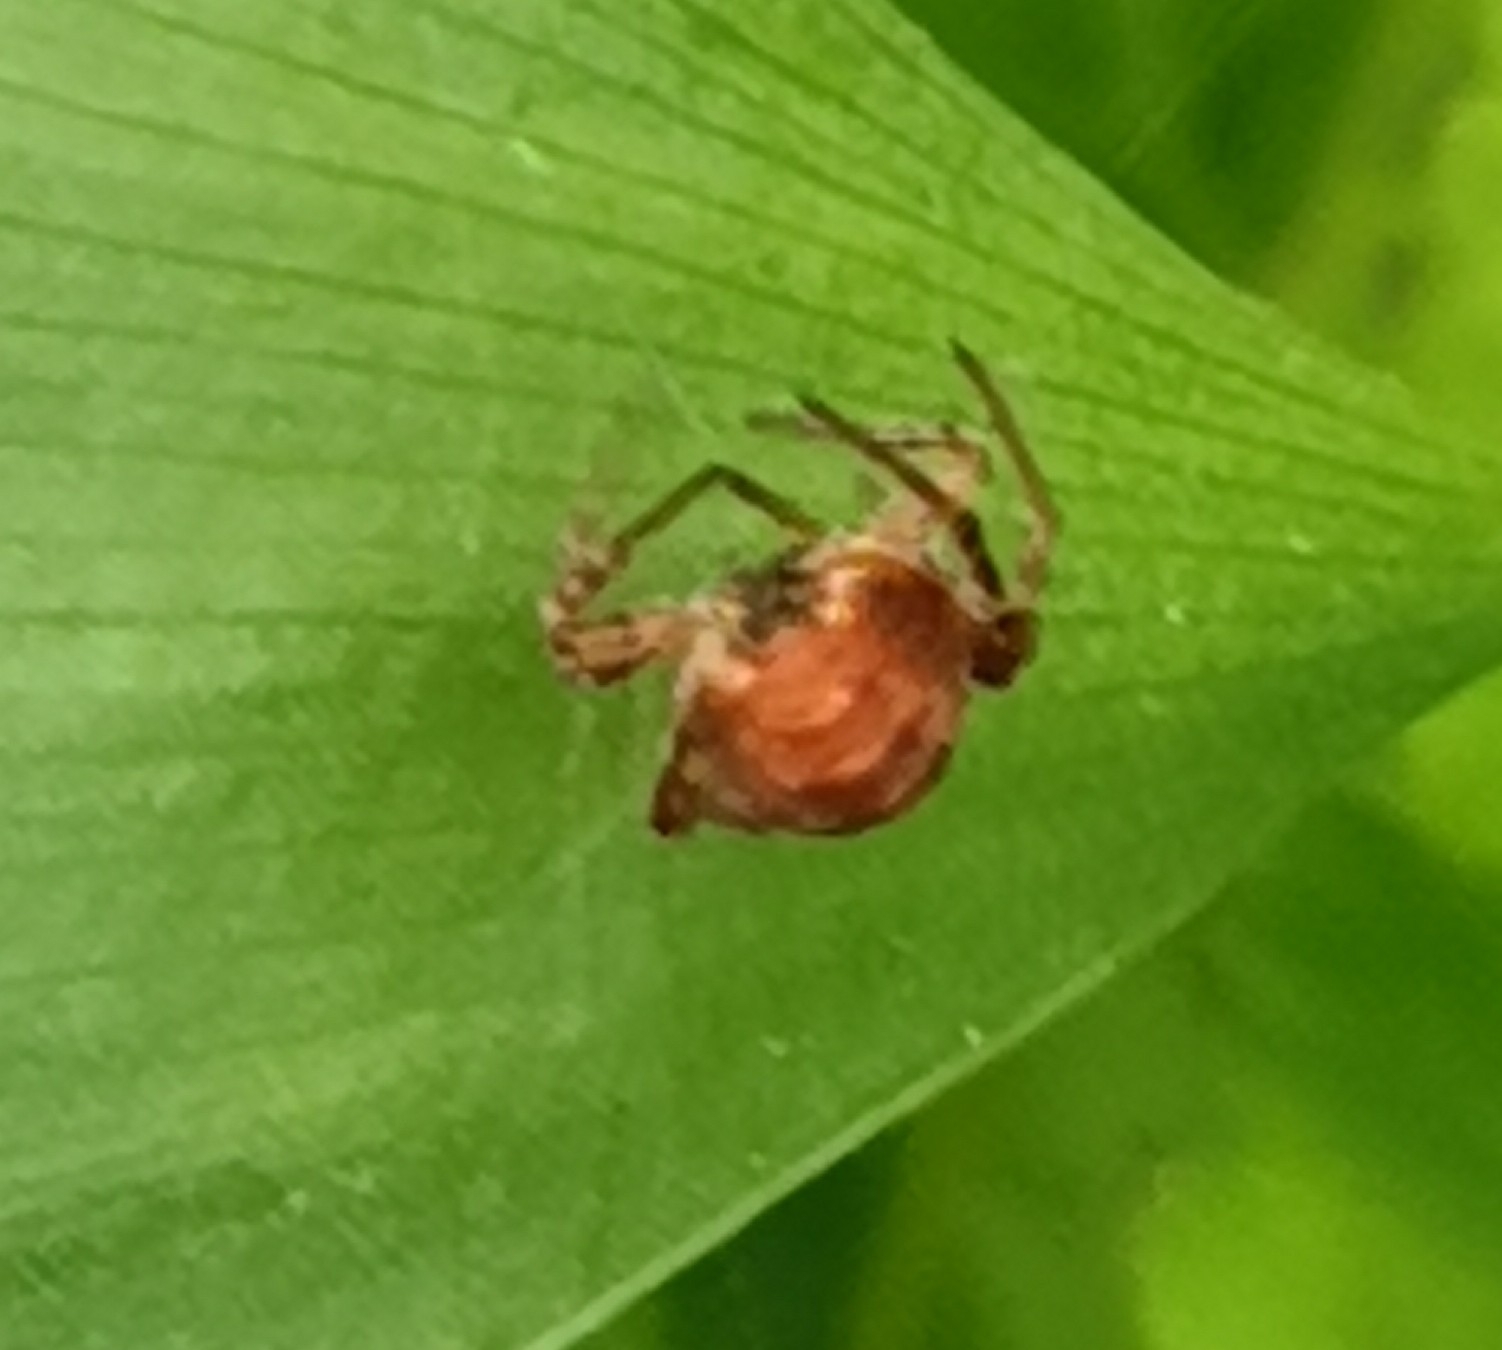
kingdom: Animalia
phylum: Arthropoda
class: Arachnida
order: Araneae
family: Araneidae
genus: Cercidia
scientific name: Cercidia prominens
